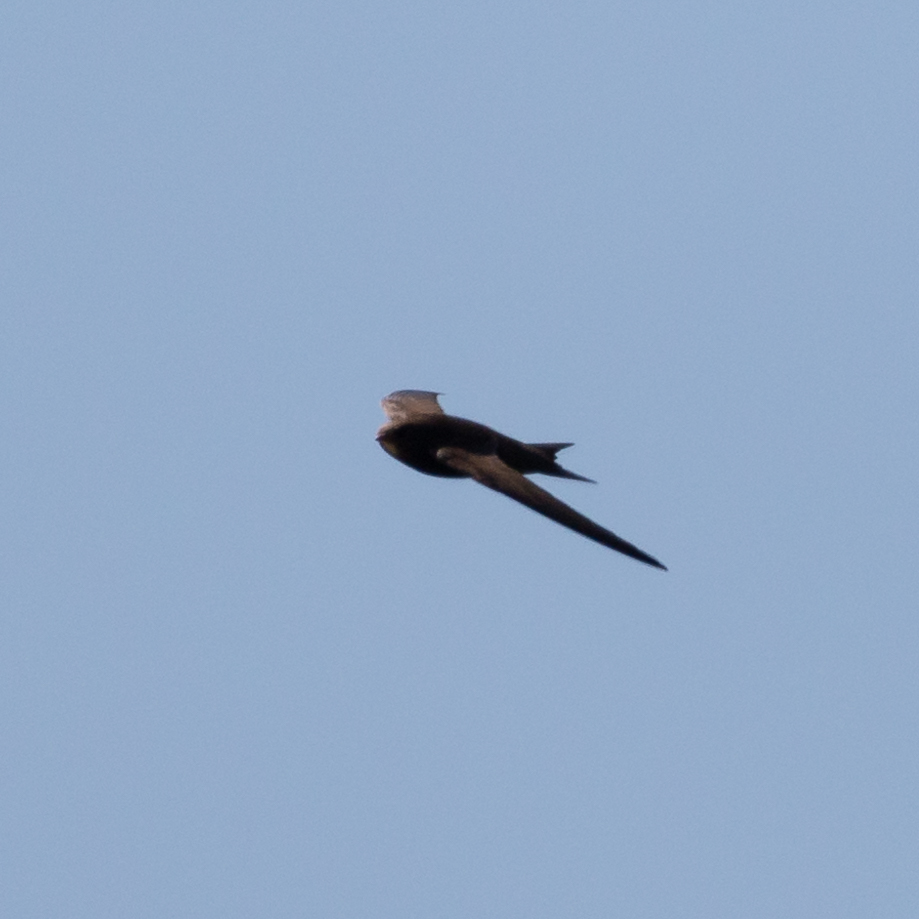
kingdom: Animalia
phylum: Chordata
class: Aves
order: Apodiformes
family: Apodidae
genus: Apus
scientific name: Apus apus
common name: Common swift
